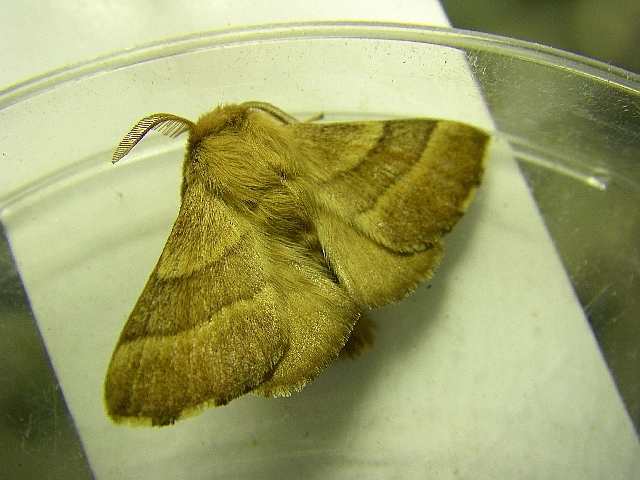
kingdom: Animalia
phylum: Arthropoda
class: Insecta
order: Lepidoptera
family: Lasiocampidae
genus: Malacosoma
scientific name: Malacosoma neustria
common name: The lackey
